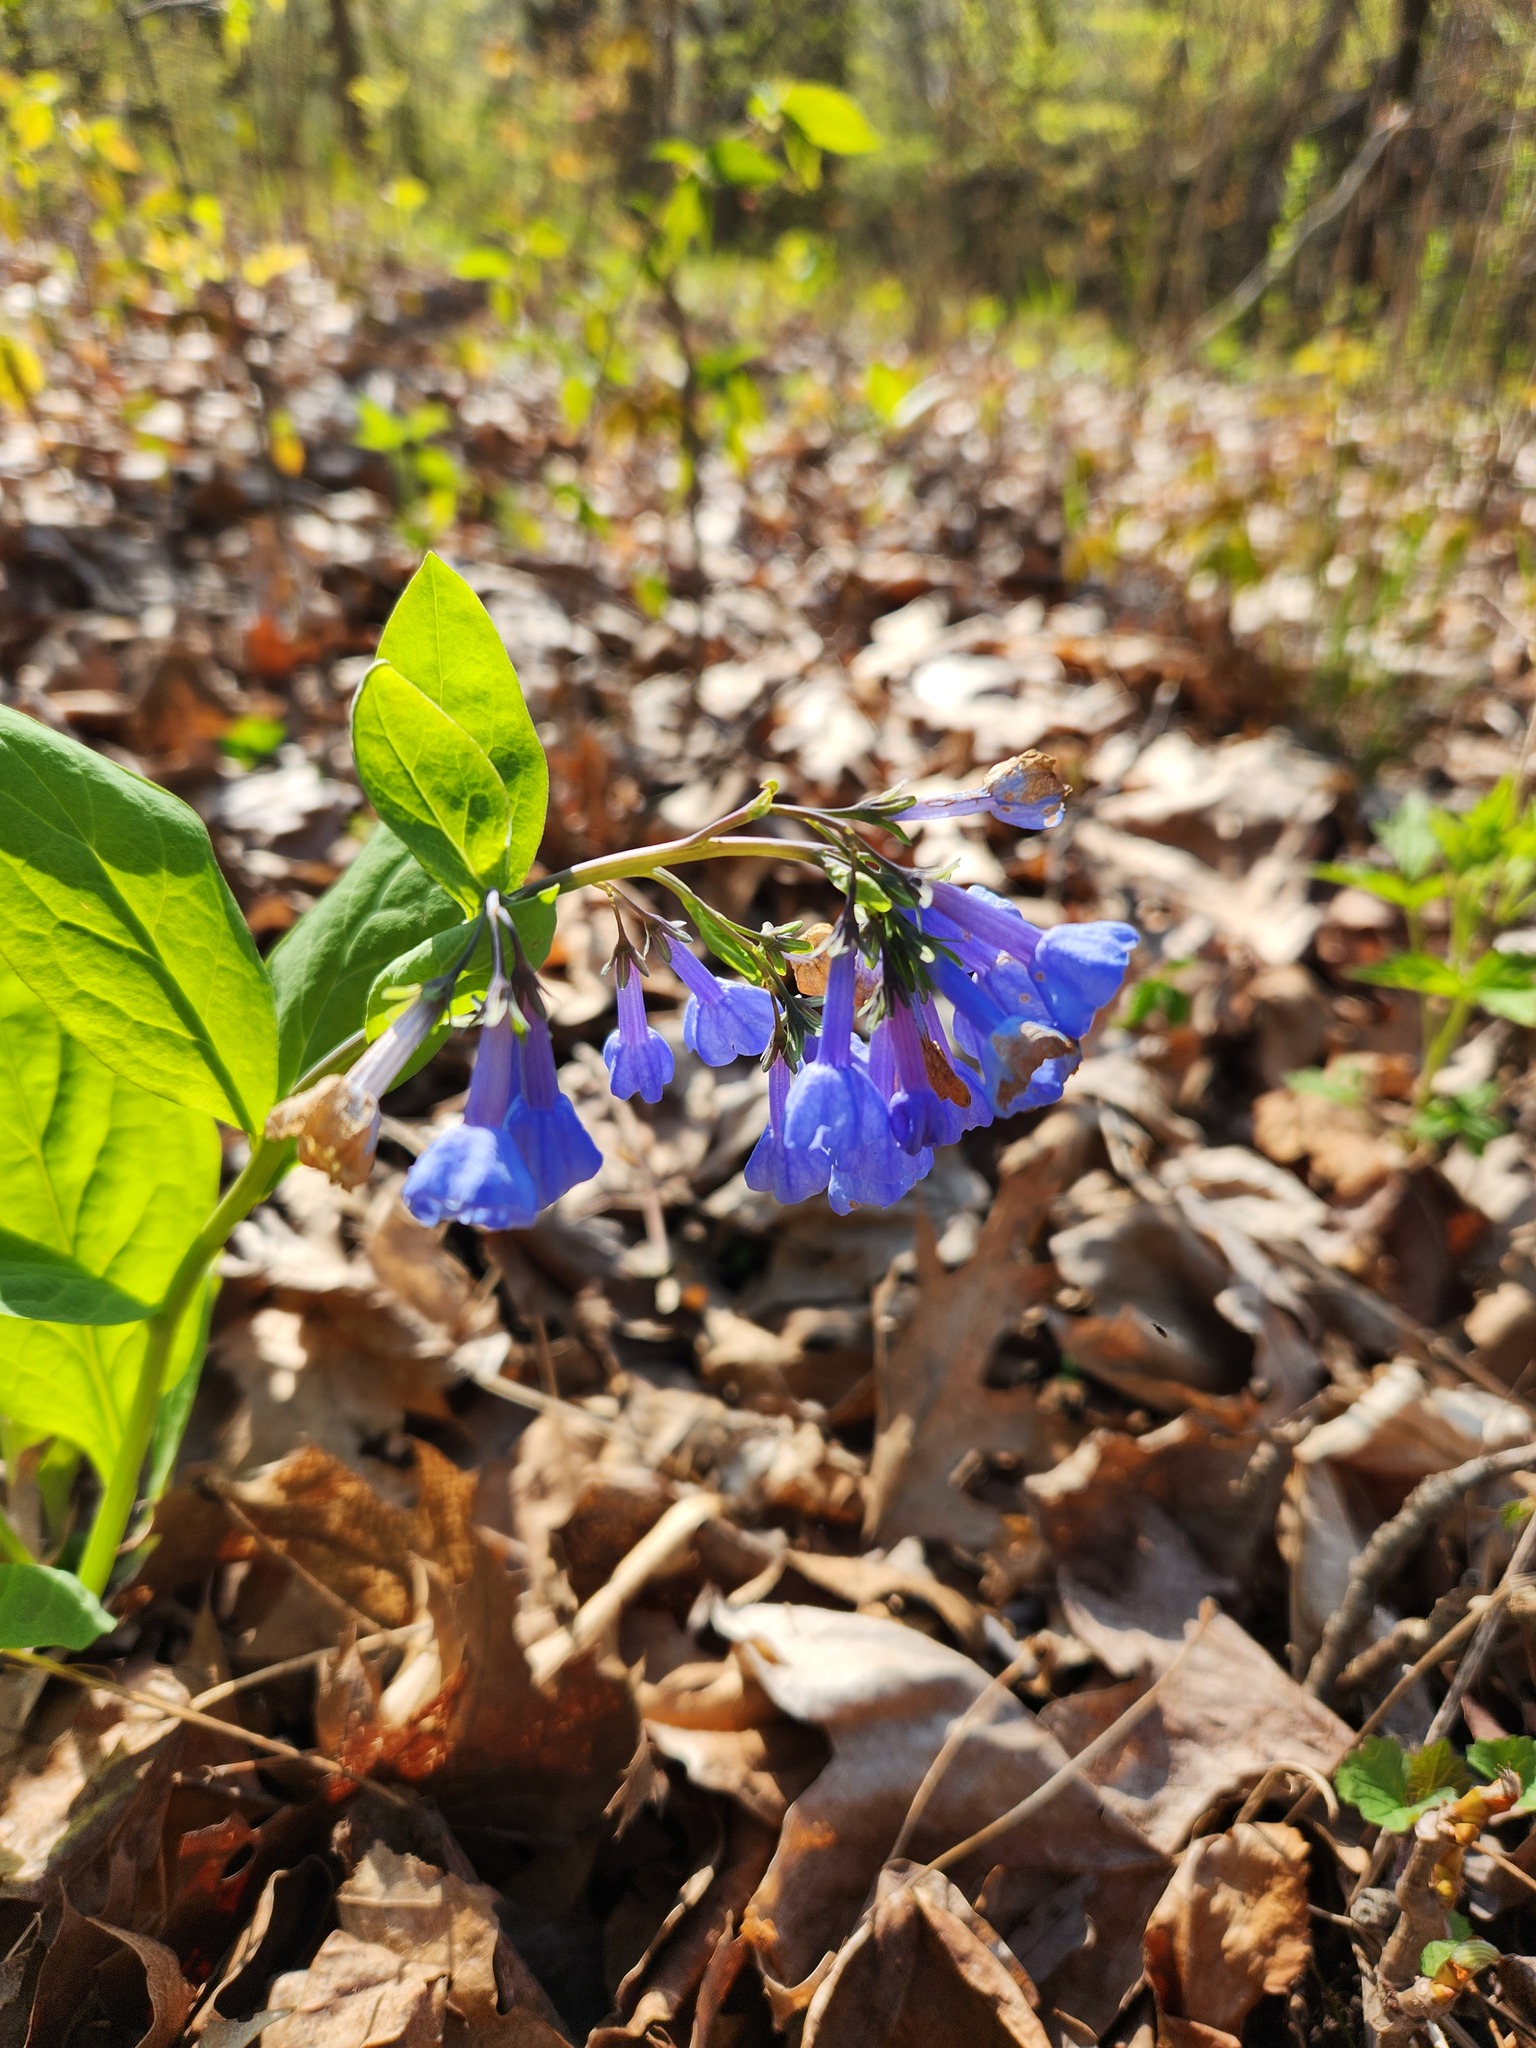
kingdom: Plantae
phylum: Tracheophyta
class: Magnoliopsida
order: Boraginales
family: Boraginaceae
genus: Mertensia
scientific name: Mertensia virginica
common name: Virginia bluebells
